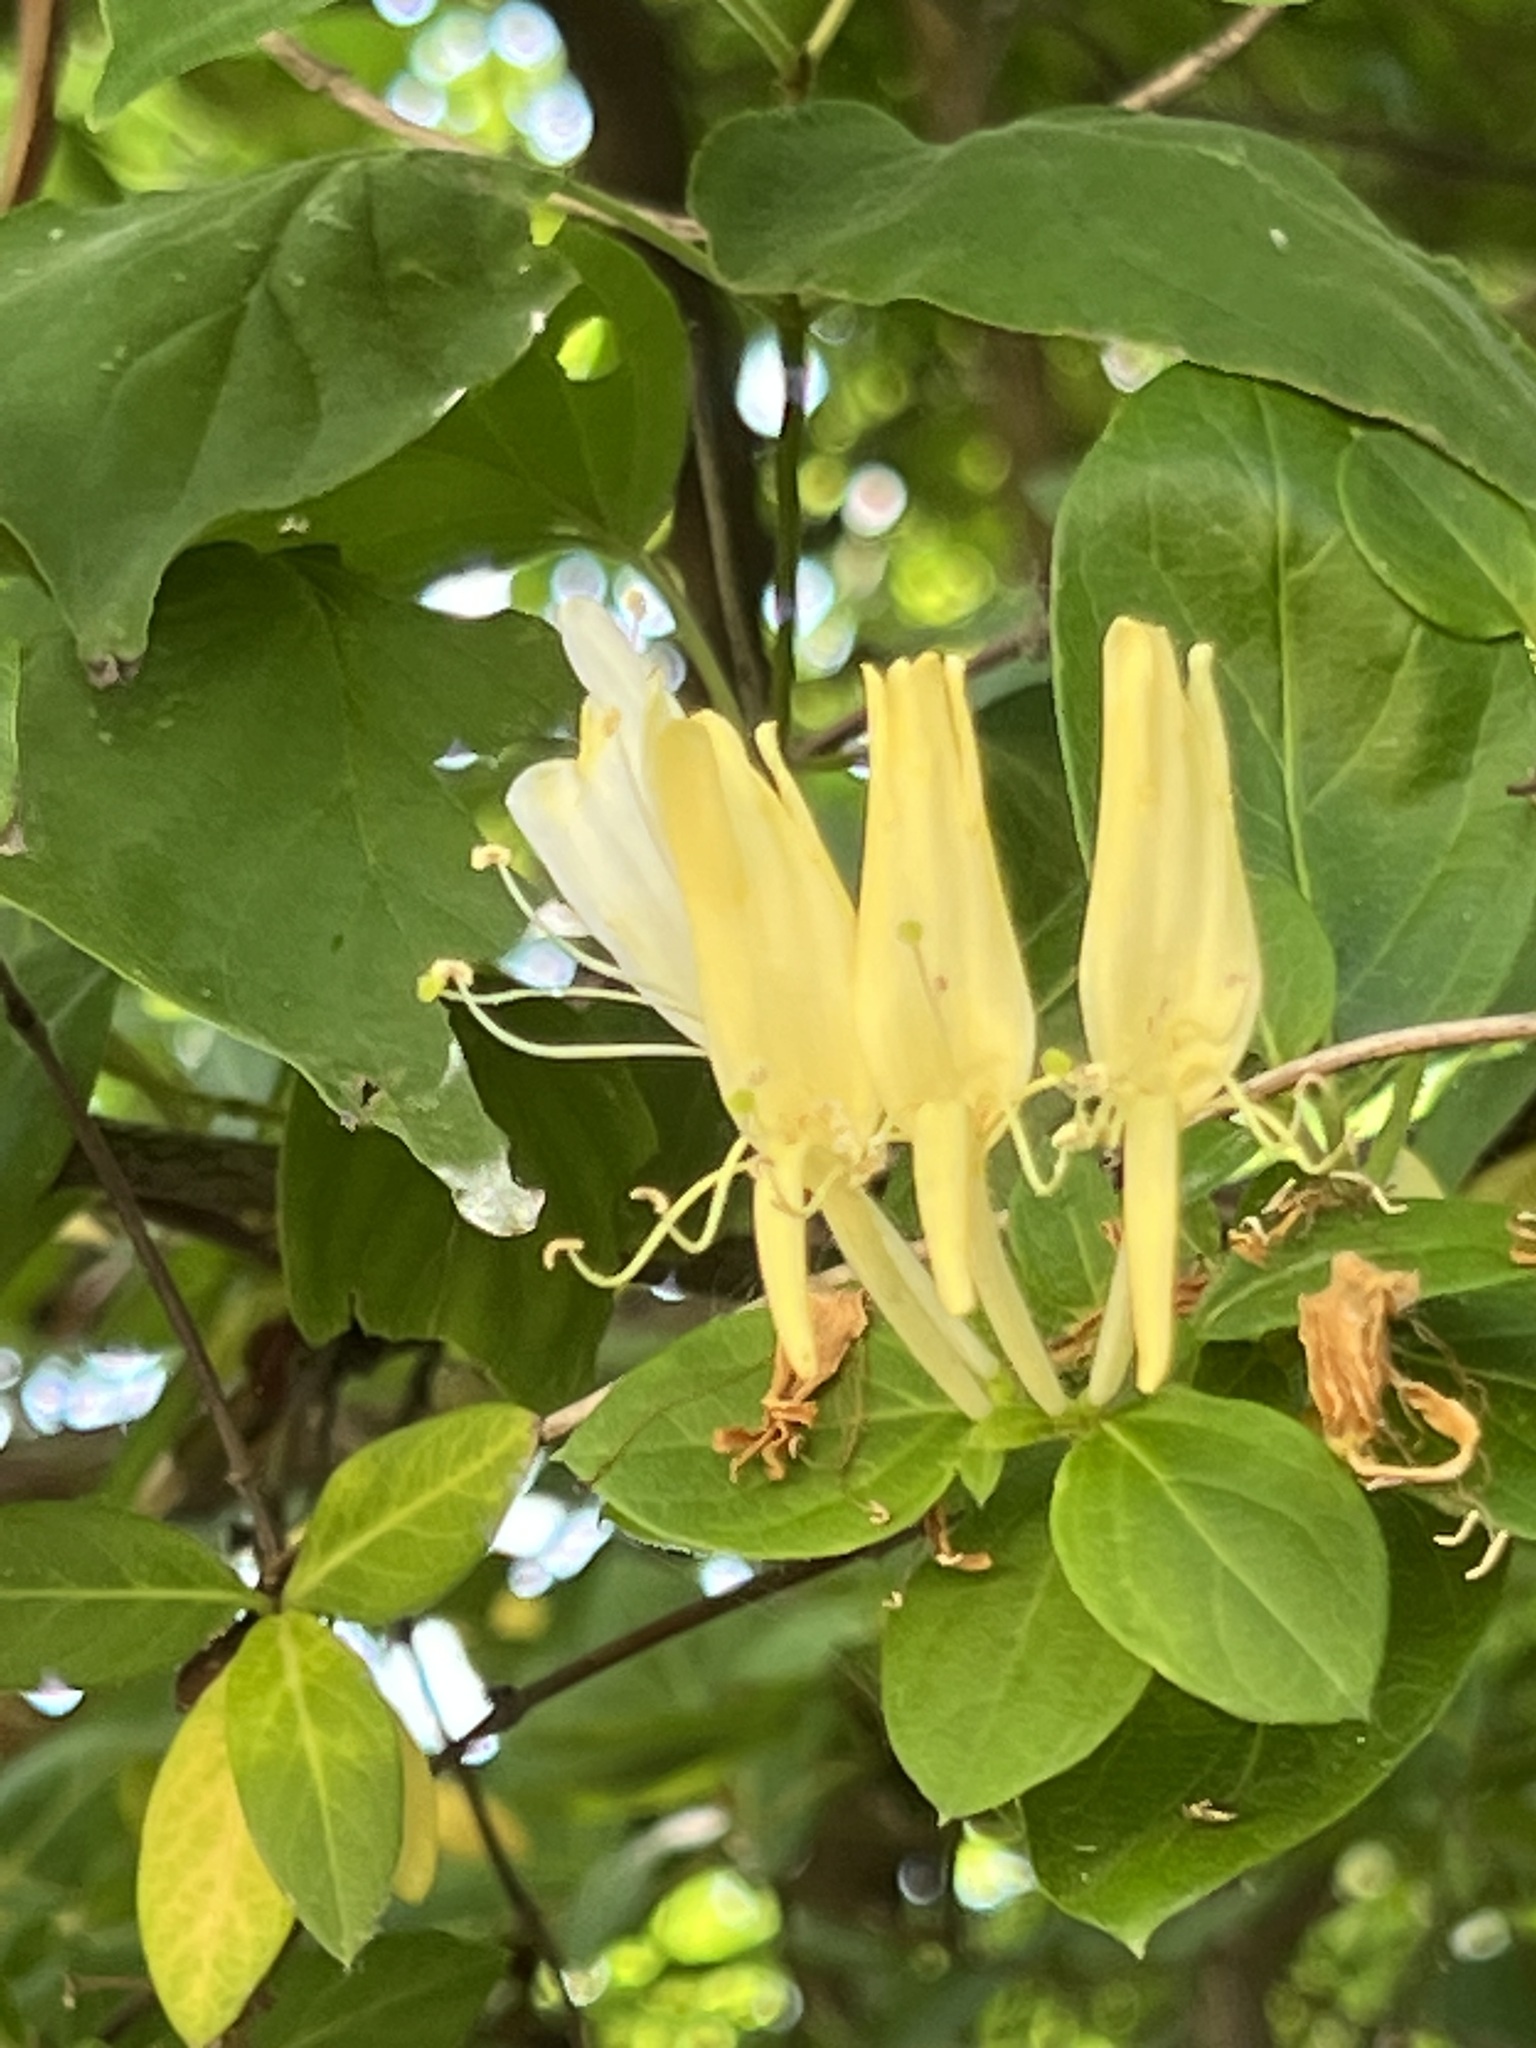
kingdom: Plantae
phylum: Tracheophyta
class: Magnoliopsida
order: Dipsacales
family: Caprifoliaceae
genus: Lonicera
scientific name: Lonicera japonica
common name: Japanese honeysuckle
